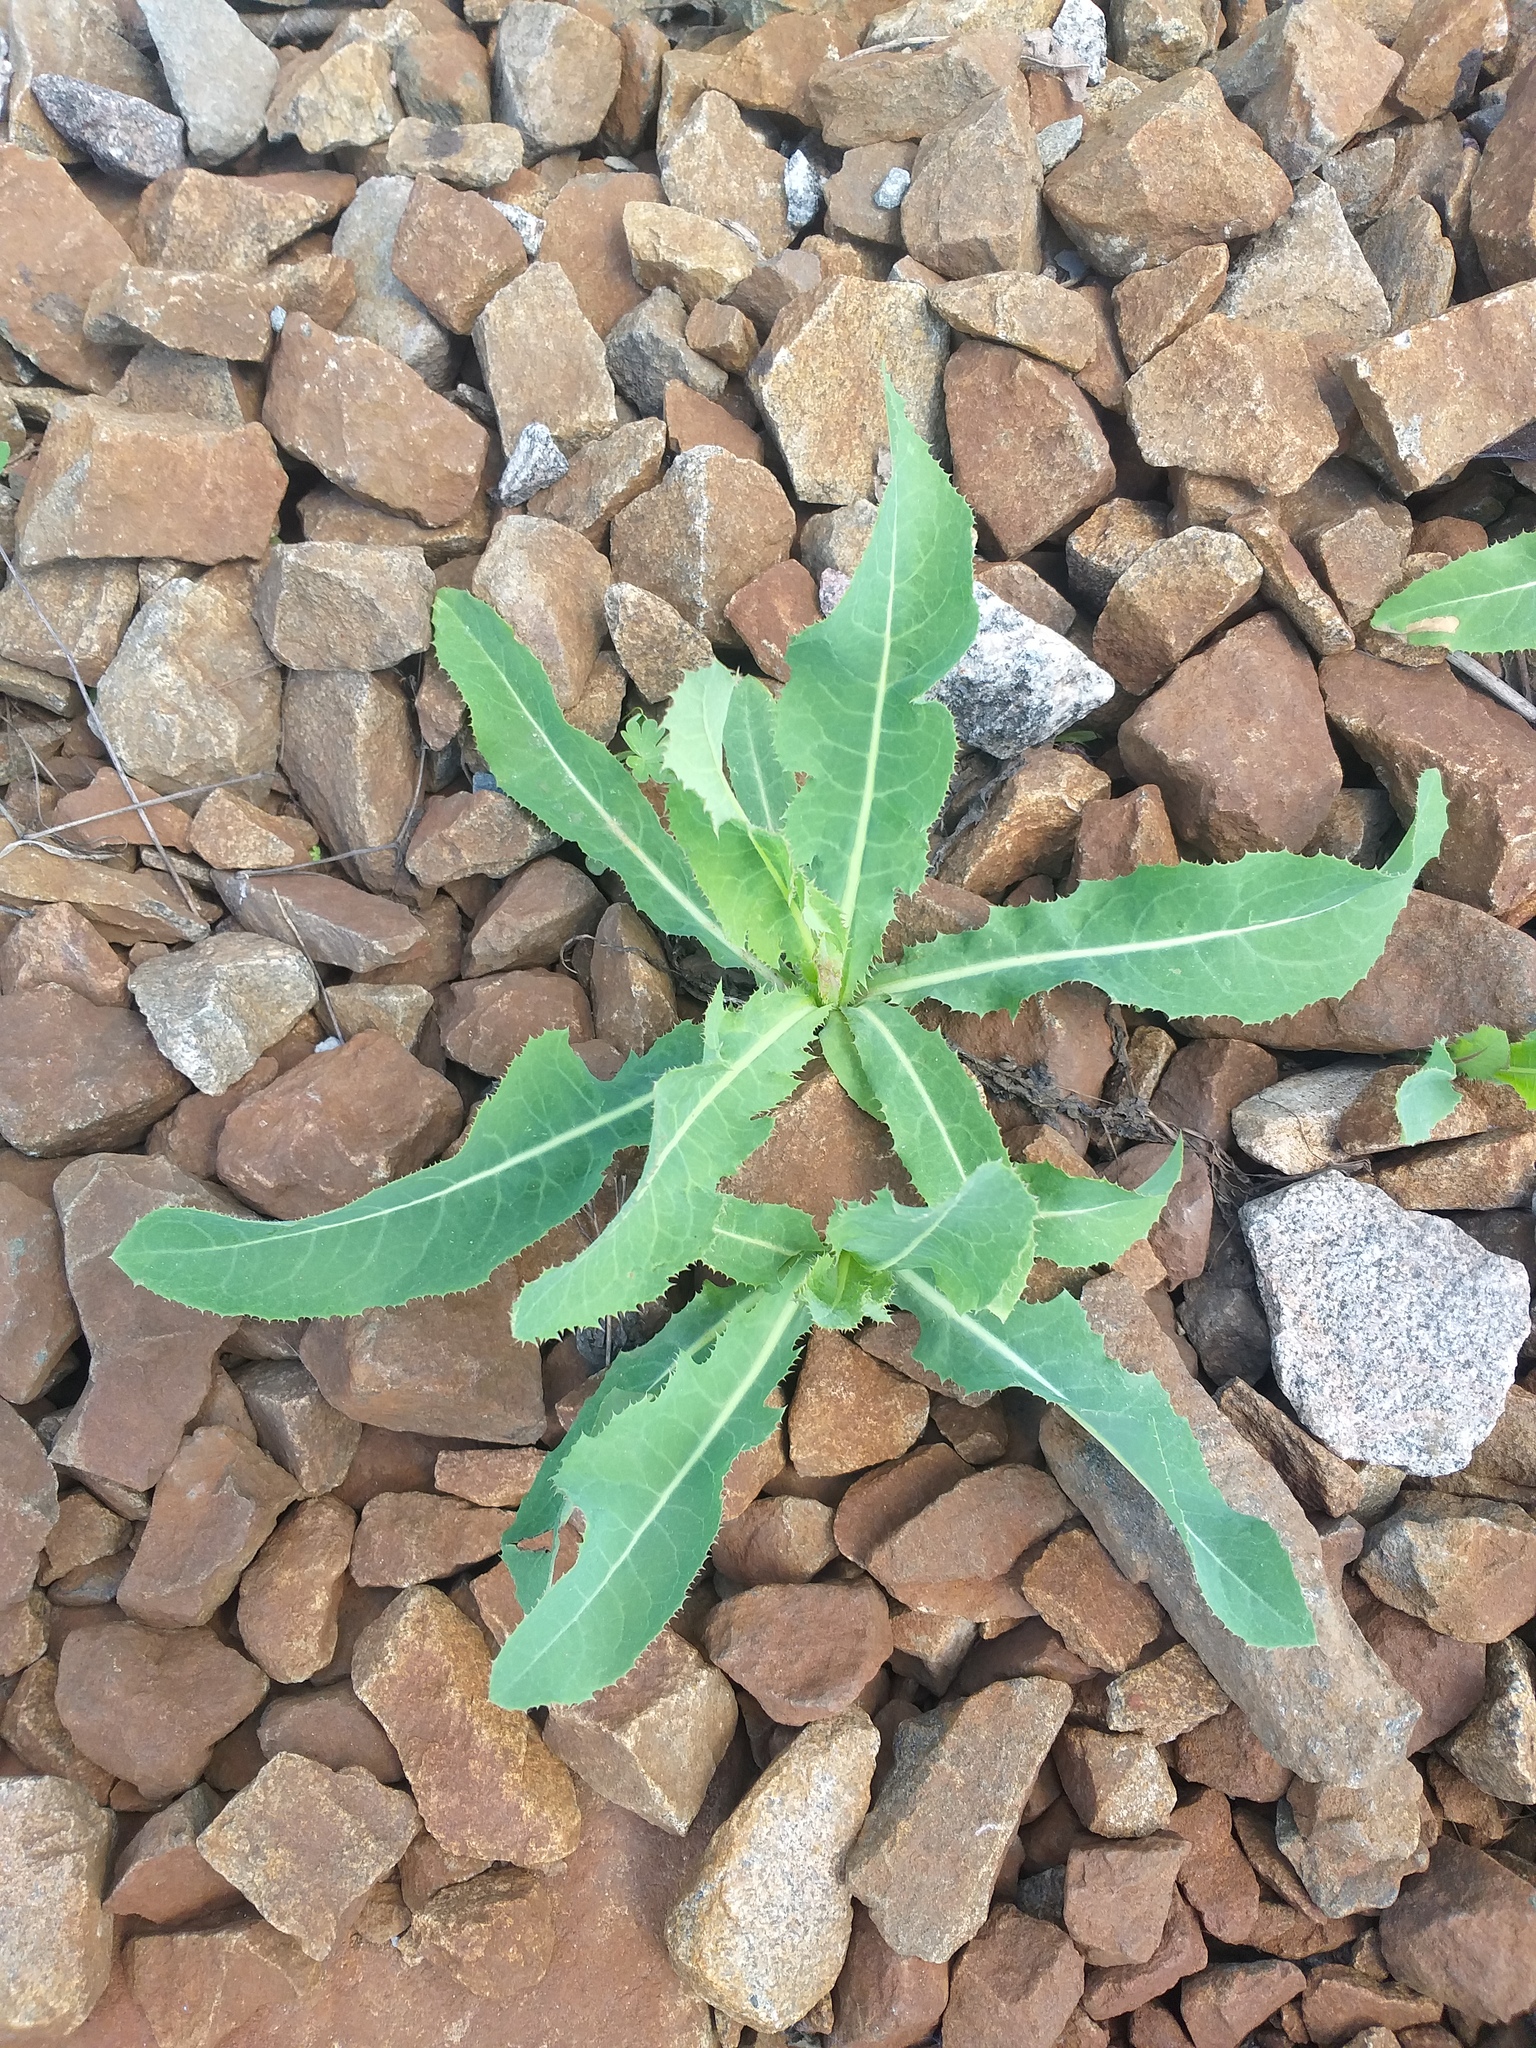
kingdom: Plantae
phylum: Tracheophyta
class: Magnoliopsida
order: Asterales
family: Asteraceae
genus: Sonchus
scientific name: Sonchus arvensis
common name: Perennial sow-thistle
